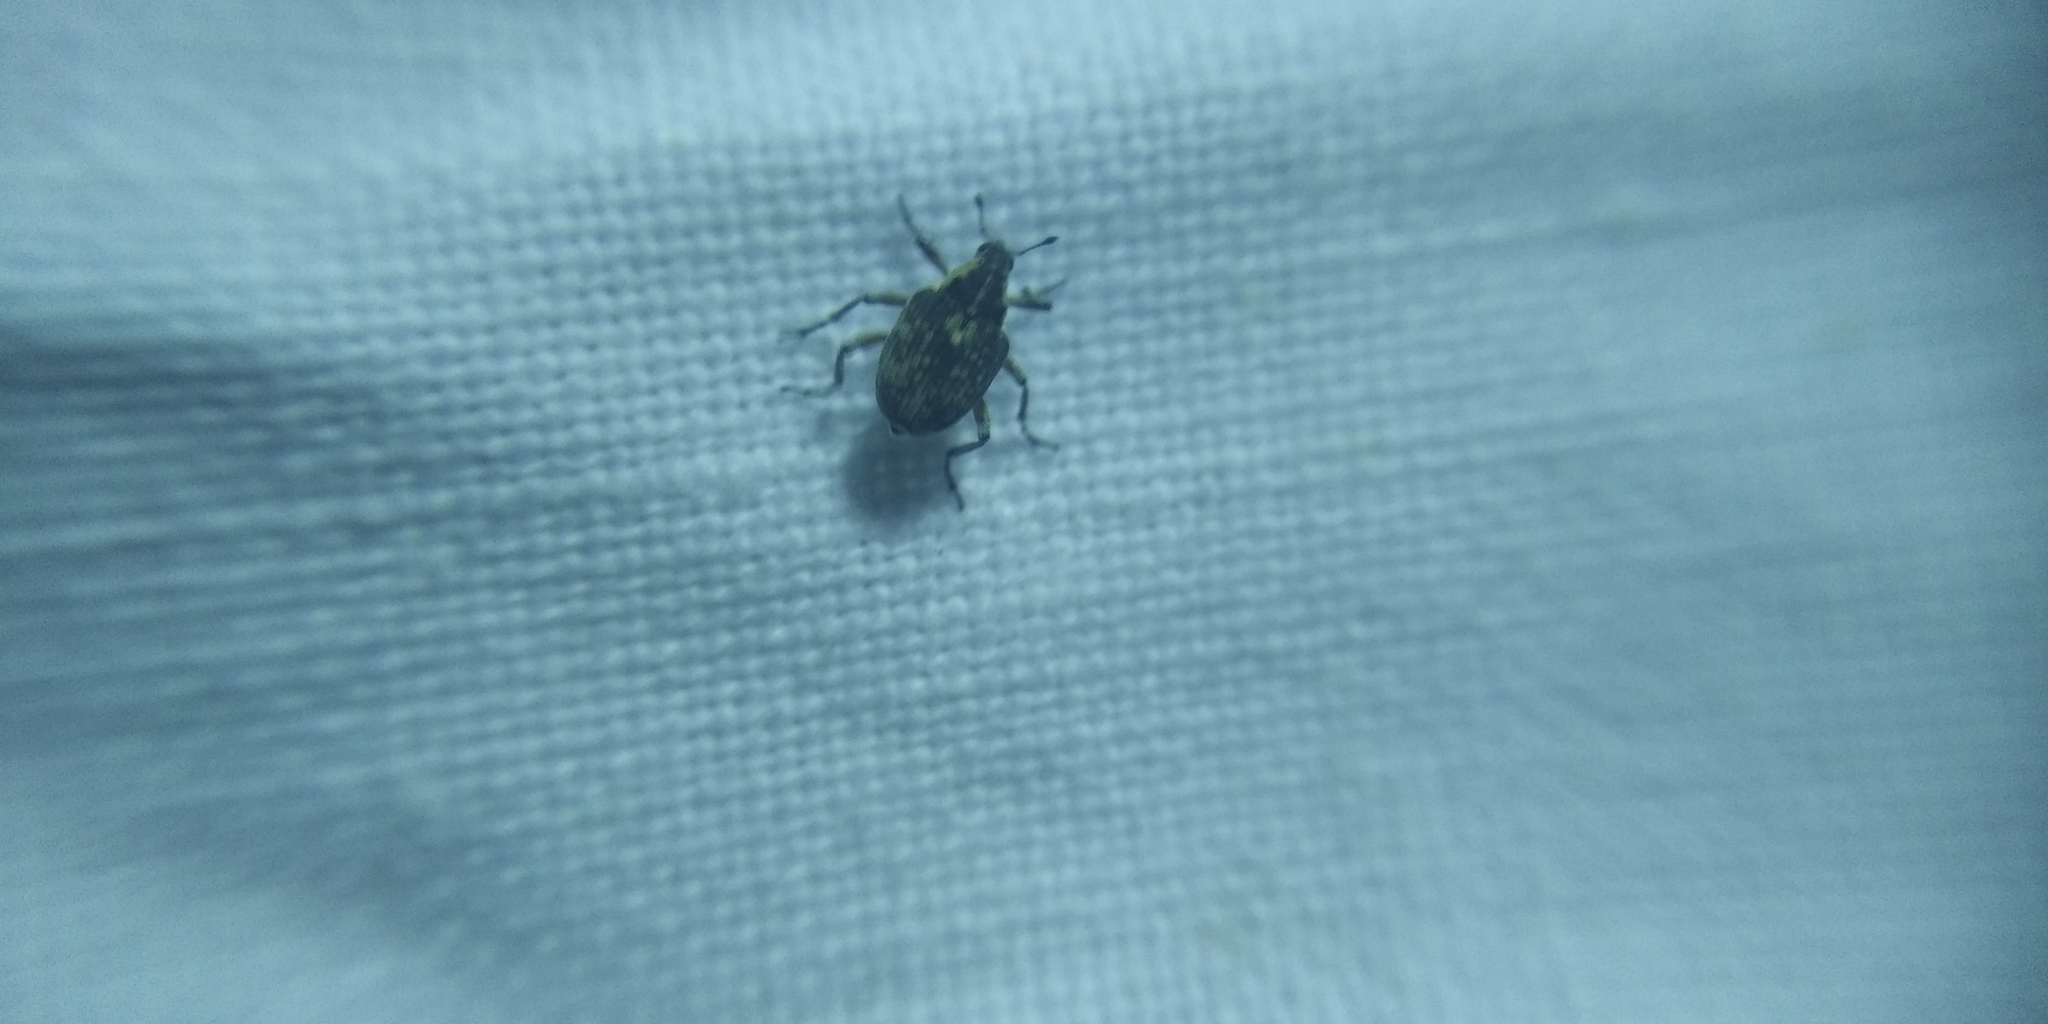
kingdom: Animalia
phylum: Arthropoda
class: Insecta
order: Coleoptera
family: Curculionidae
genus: Phytobius
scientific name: Phytobius leucogaster
